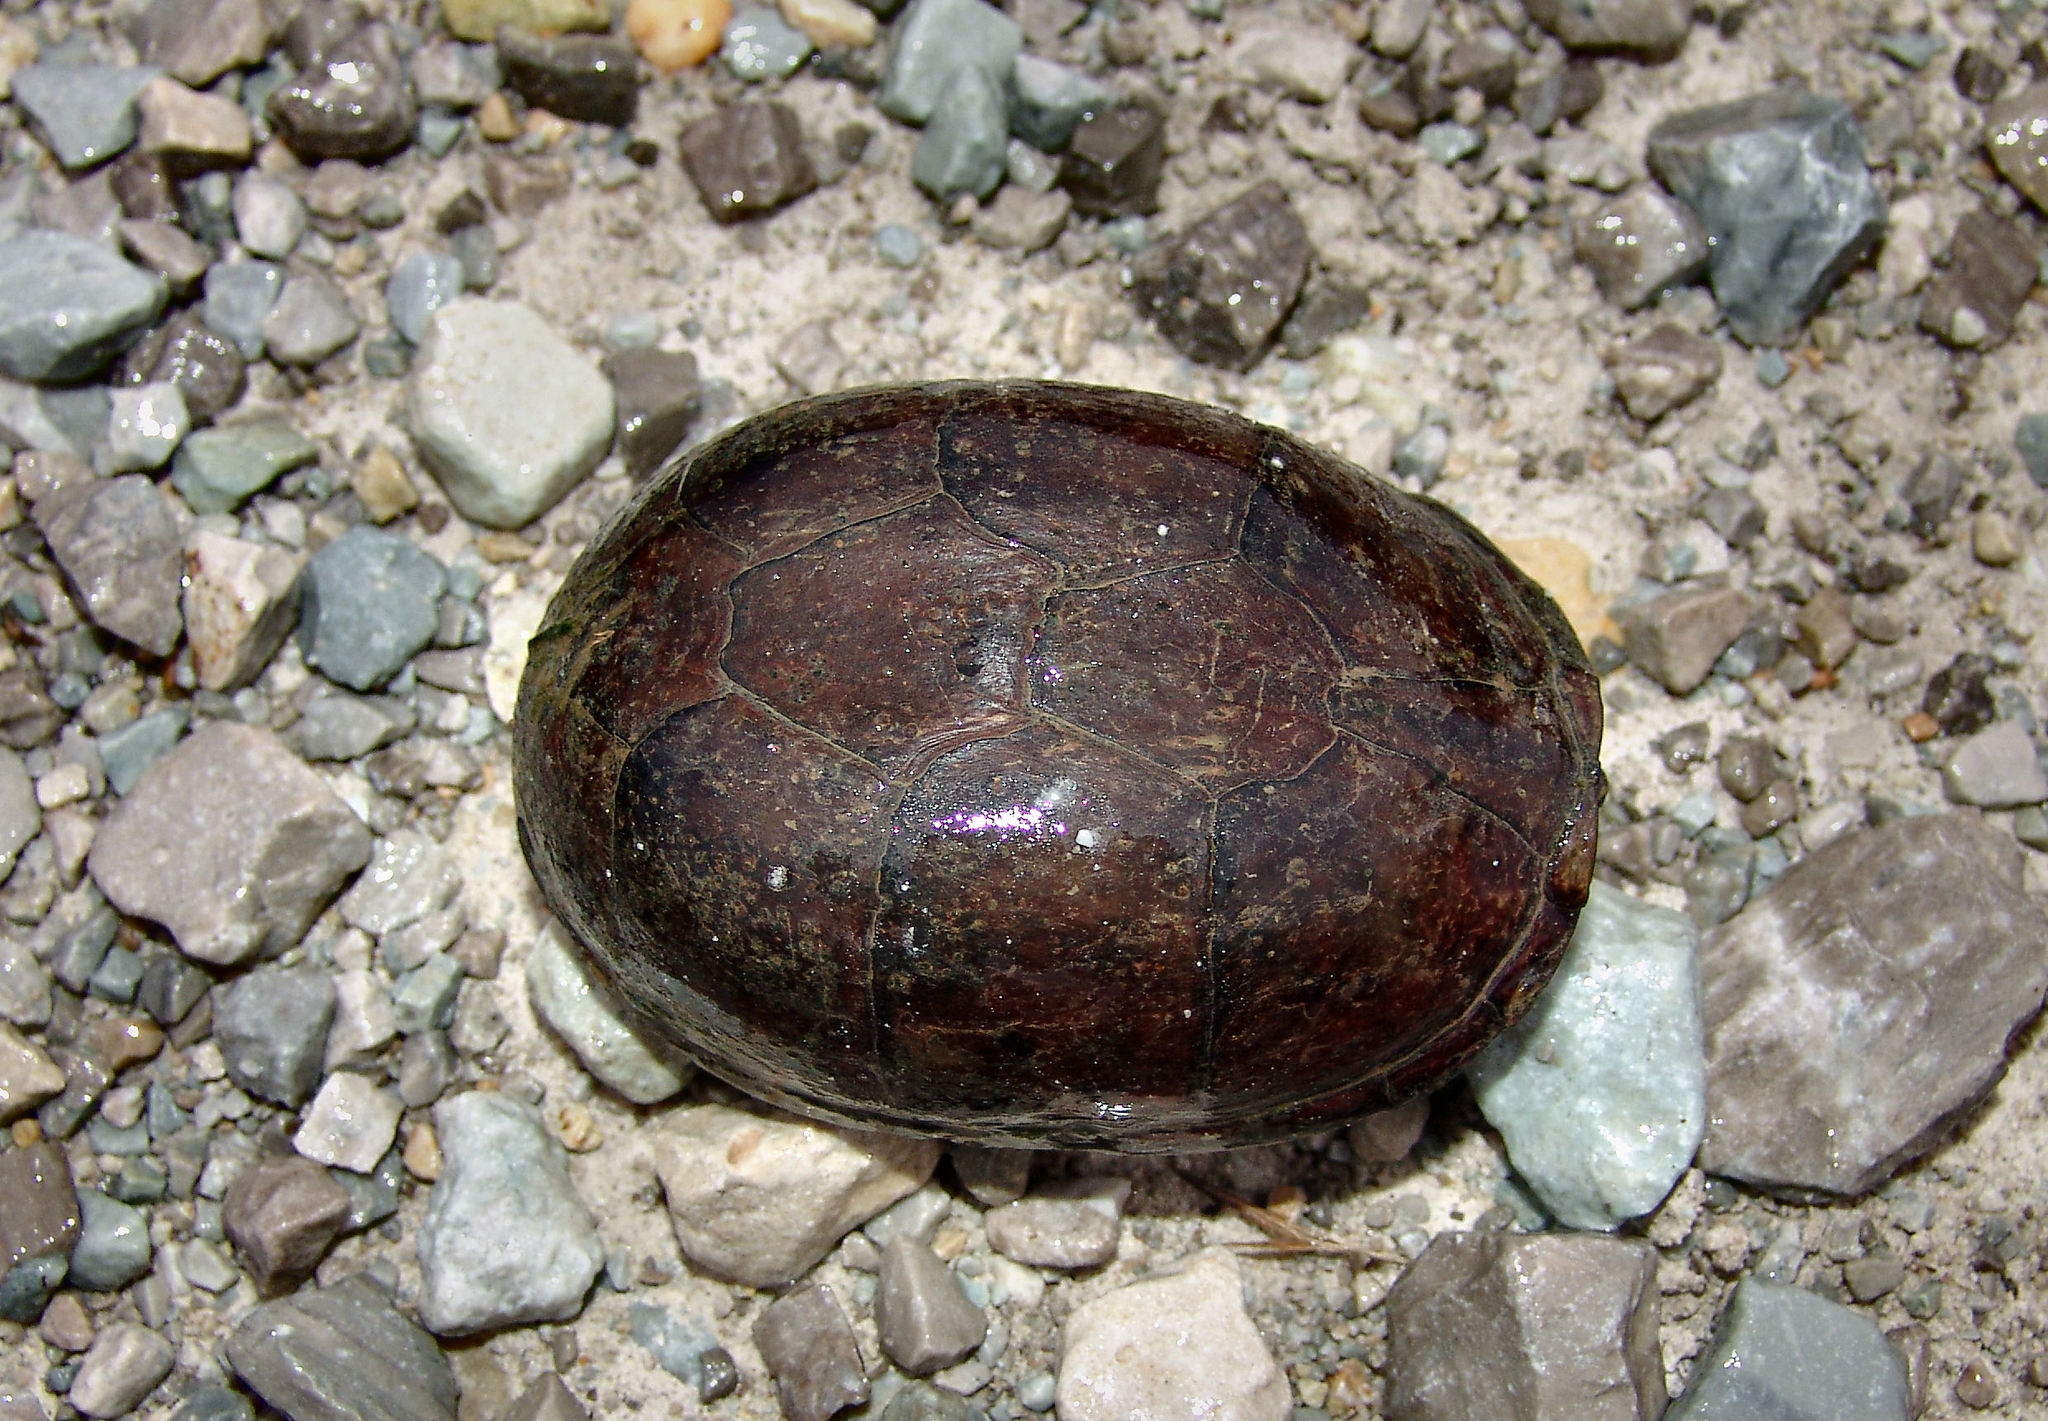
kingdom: Animalia
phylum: Chordata
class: Testudines
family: Kinosternidae
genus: Kinosternon
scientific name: Kinosternon subrubrum
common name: Eastern mud turtle
